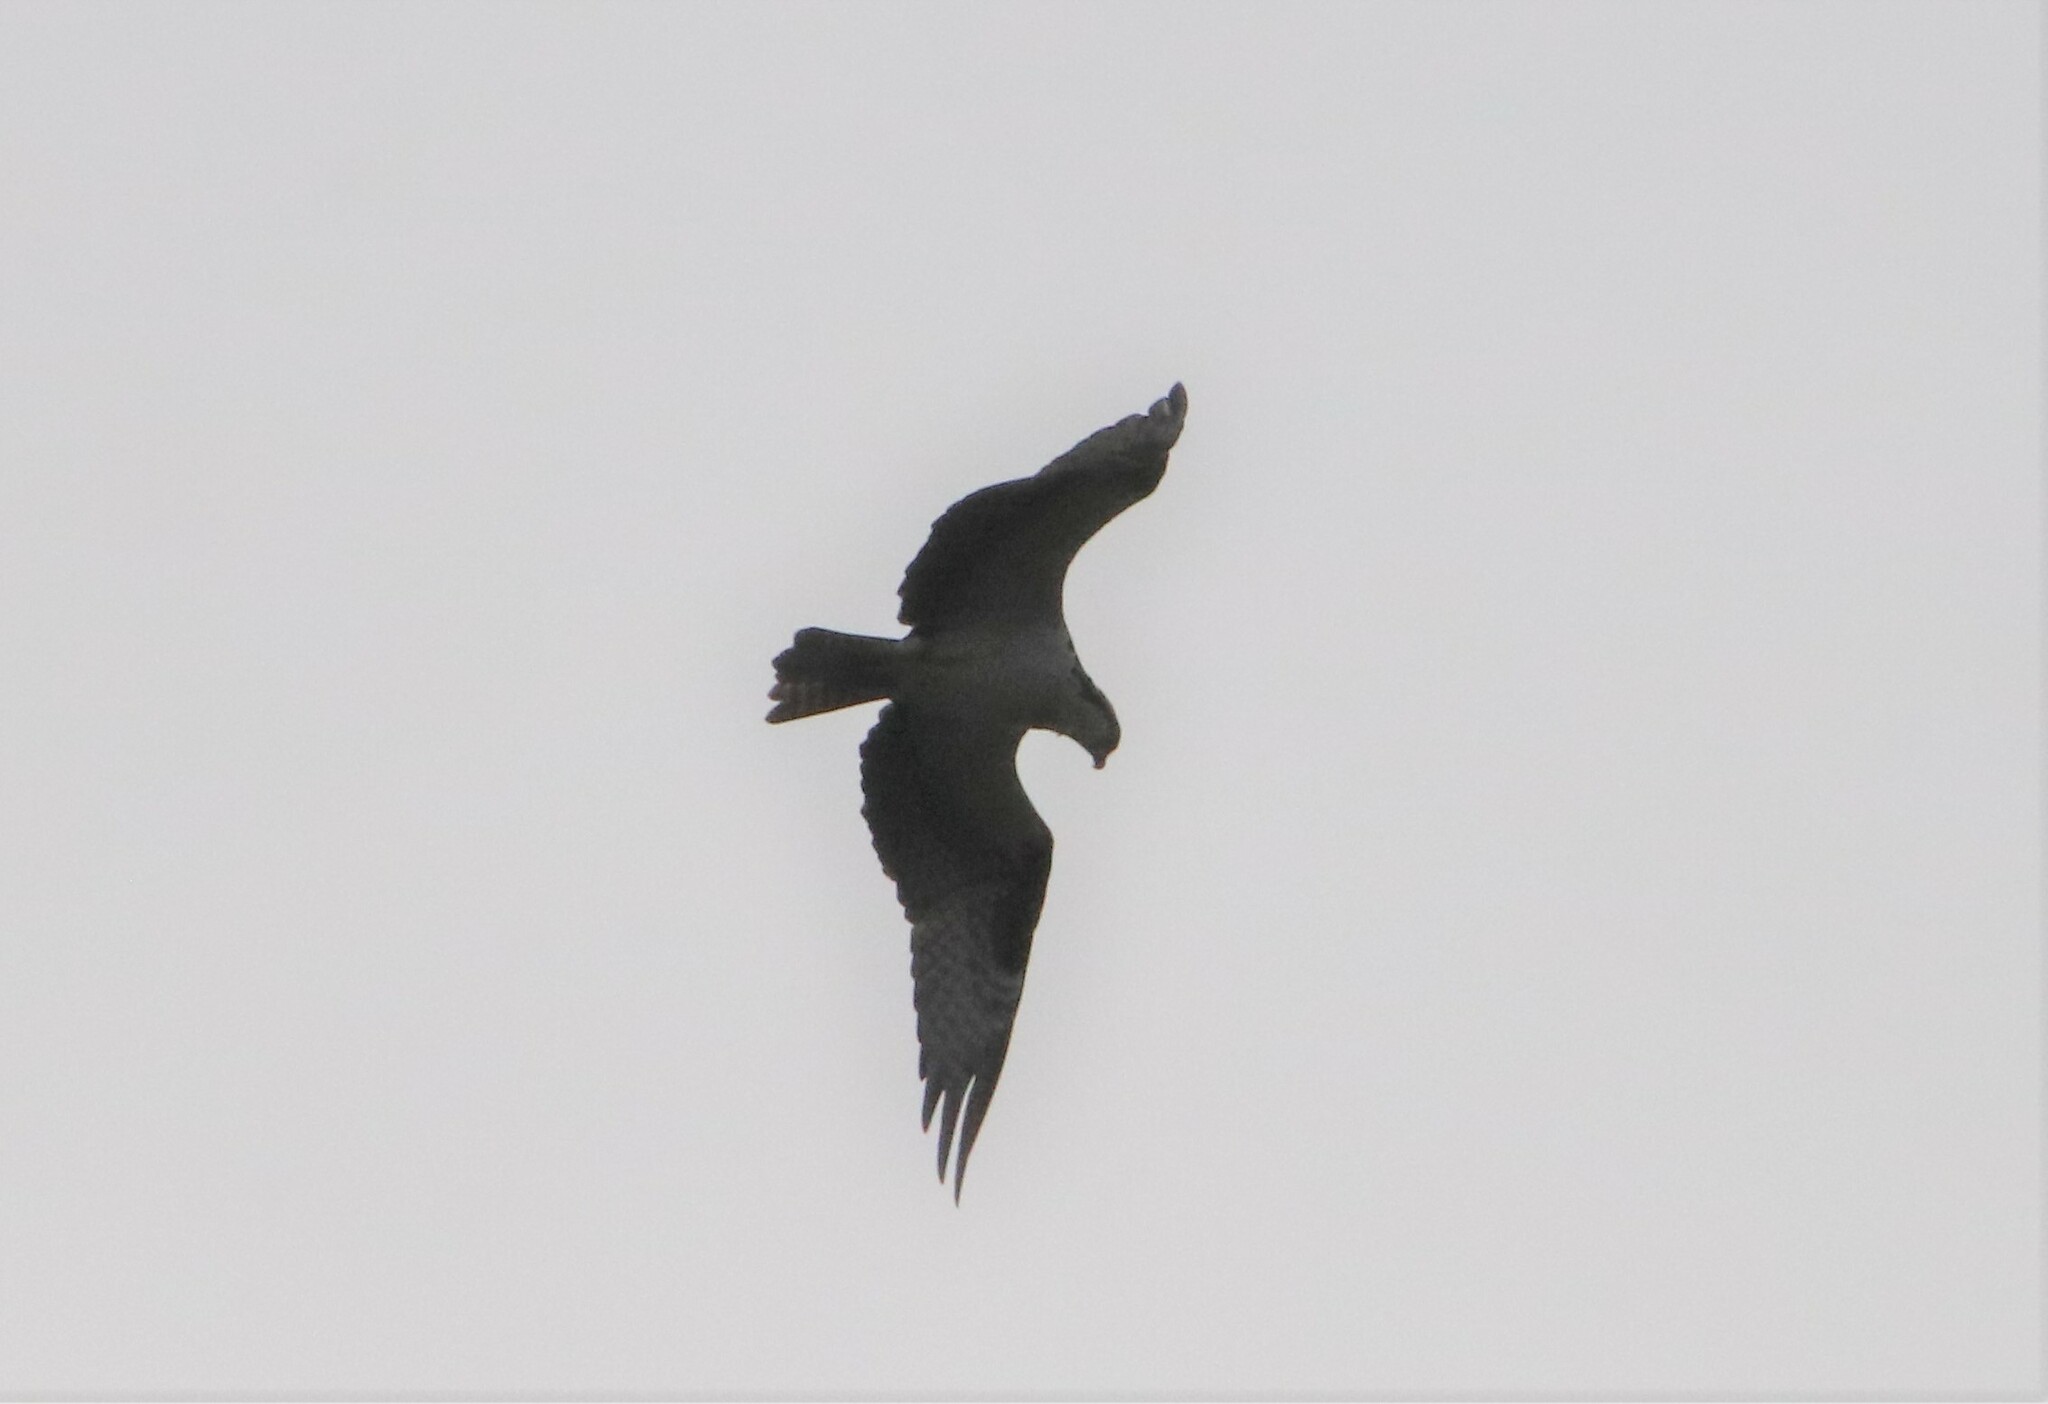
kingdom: Animalia
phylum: Chordata
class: Aves
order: Accipitriformes
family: Pandionidae
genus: Pandion
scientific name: Pandion haliaetus
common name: Osprey
